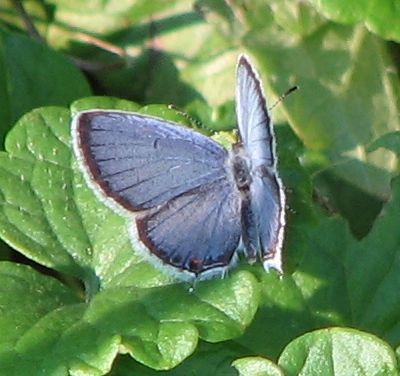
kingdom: Animalia
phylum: Arthropoda
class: Insecta
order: Lepidoptera
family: Lycaenidae
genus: Elkalyce
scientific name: Elkalyce comyntas
